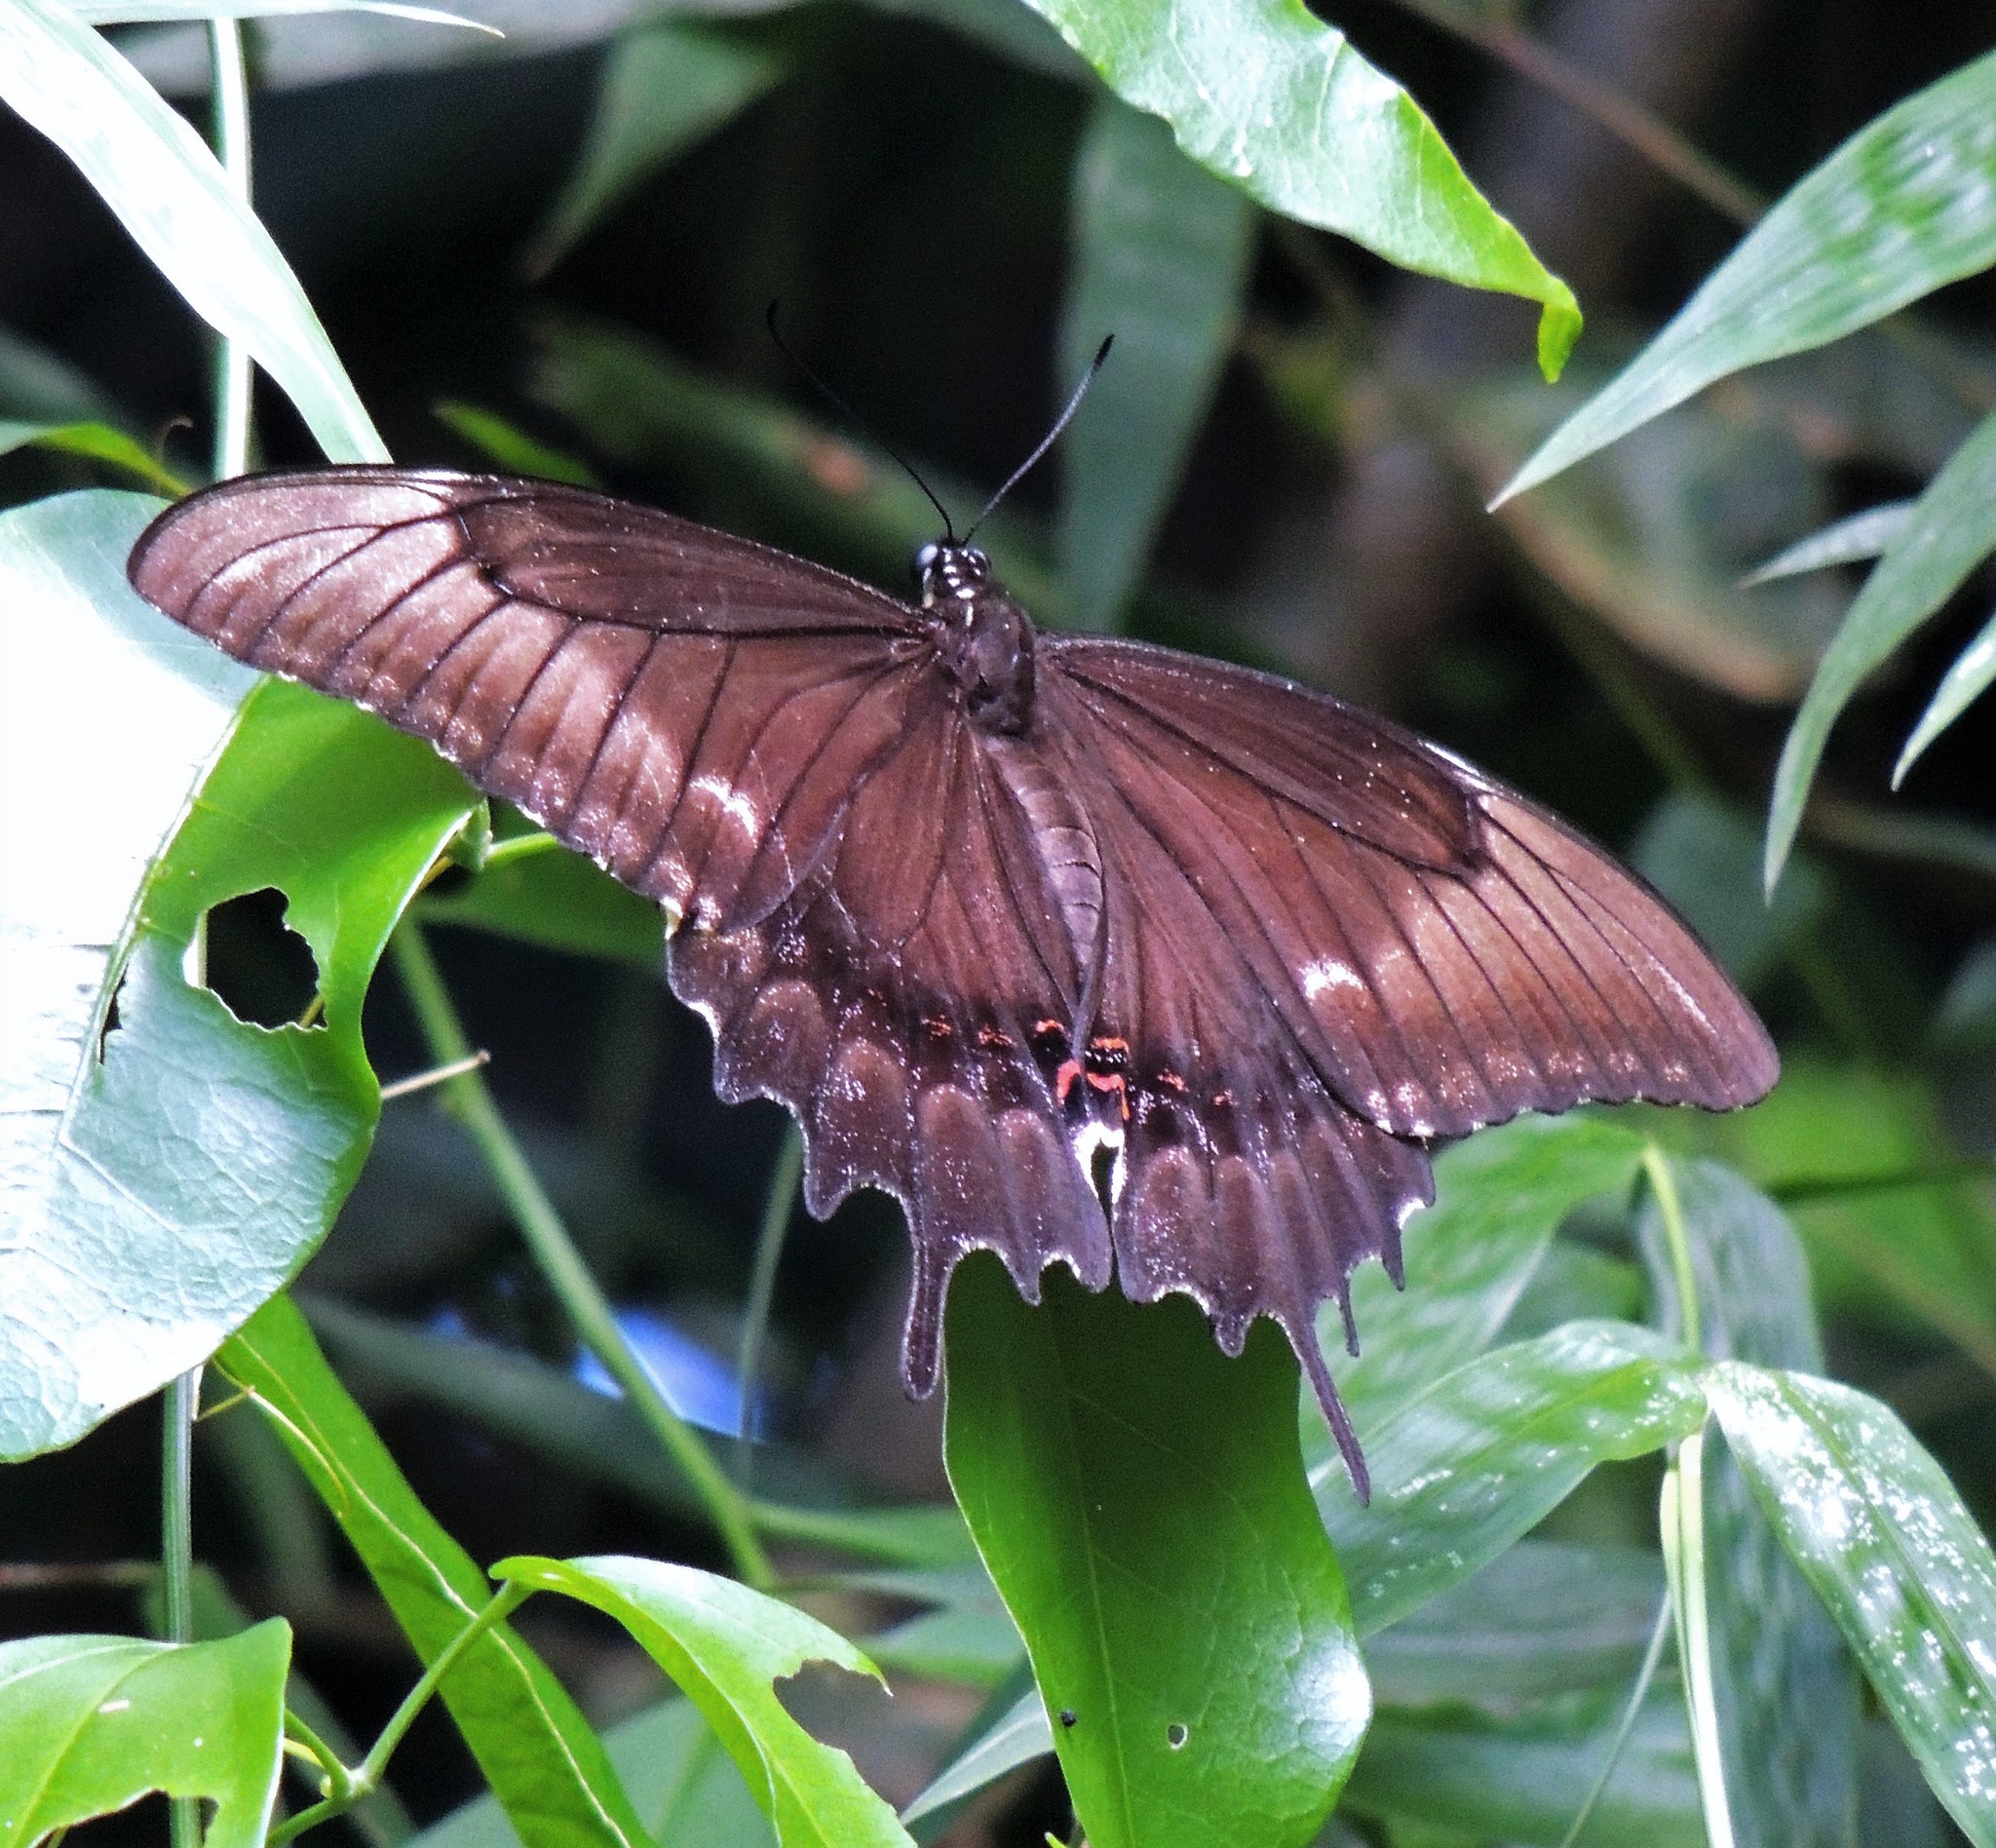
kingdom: Animalia
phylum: Arthropoda
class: Insecta
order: Lepidoptera
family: Papilionidae
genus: Papilio
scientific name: Papilio astyalus
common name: Astyalus swallowtail
